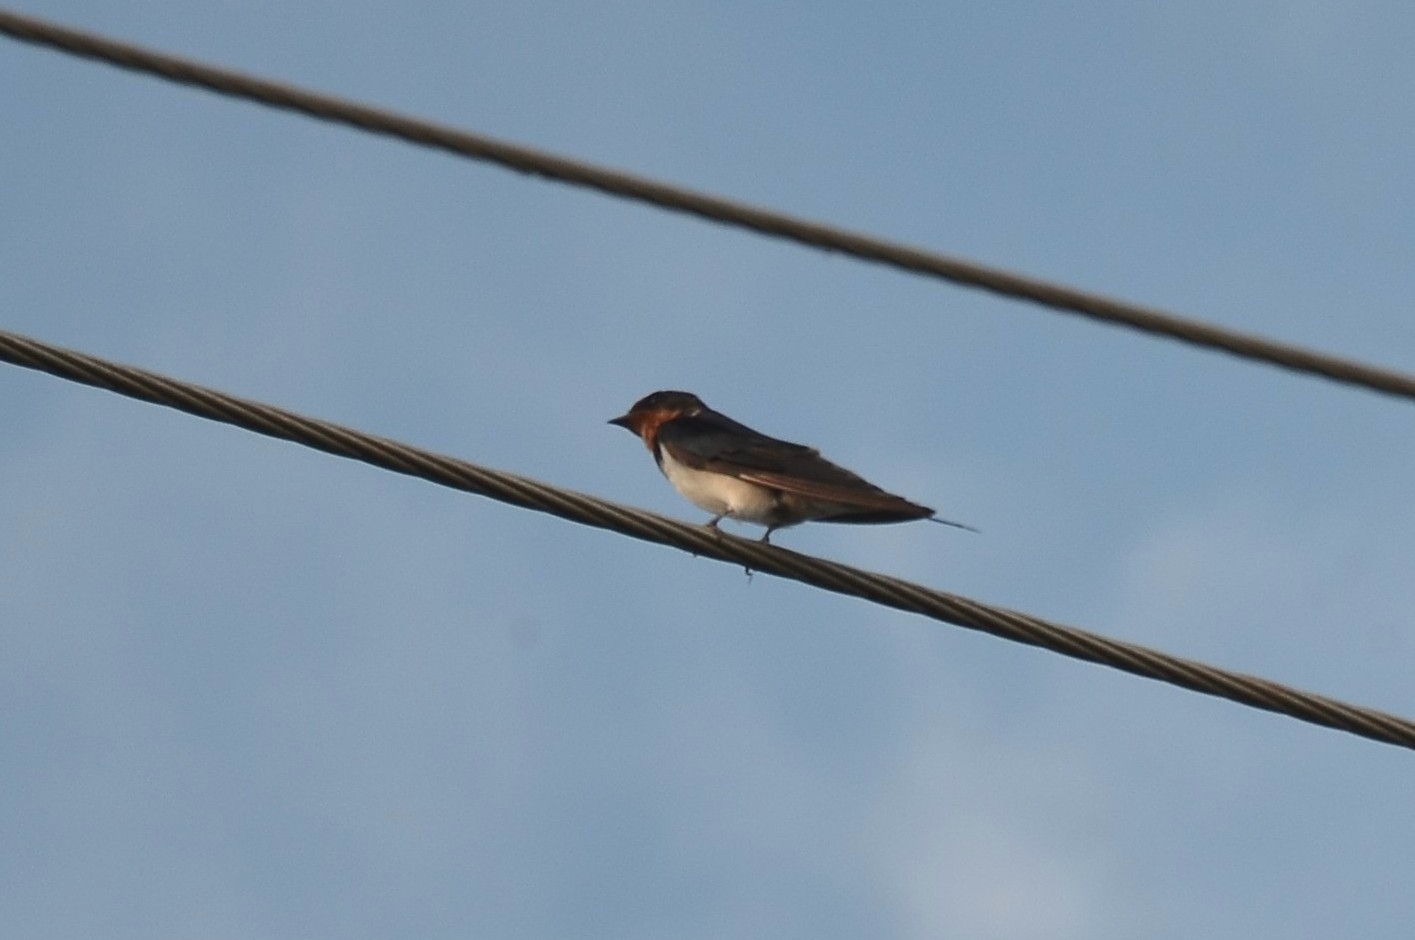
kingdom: Animalia
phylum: Chordata
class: Aves
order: Passeriformes
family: Hirundinidae
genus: Hirundo
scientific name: Hirundo rustica
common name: Barn swallow
